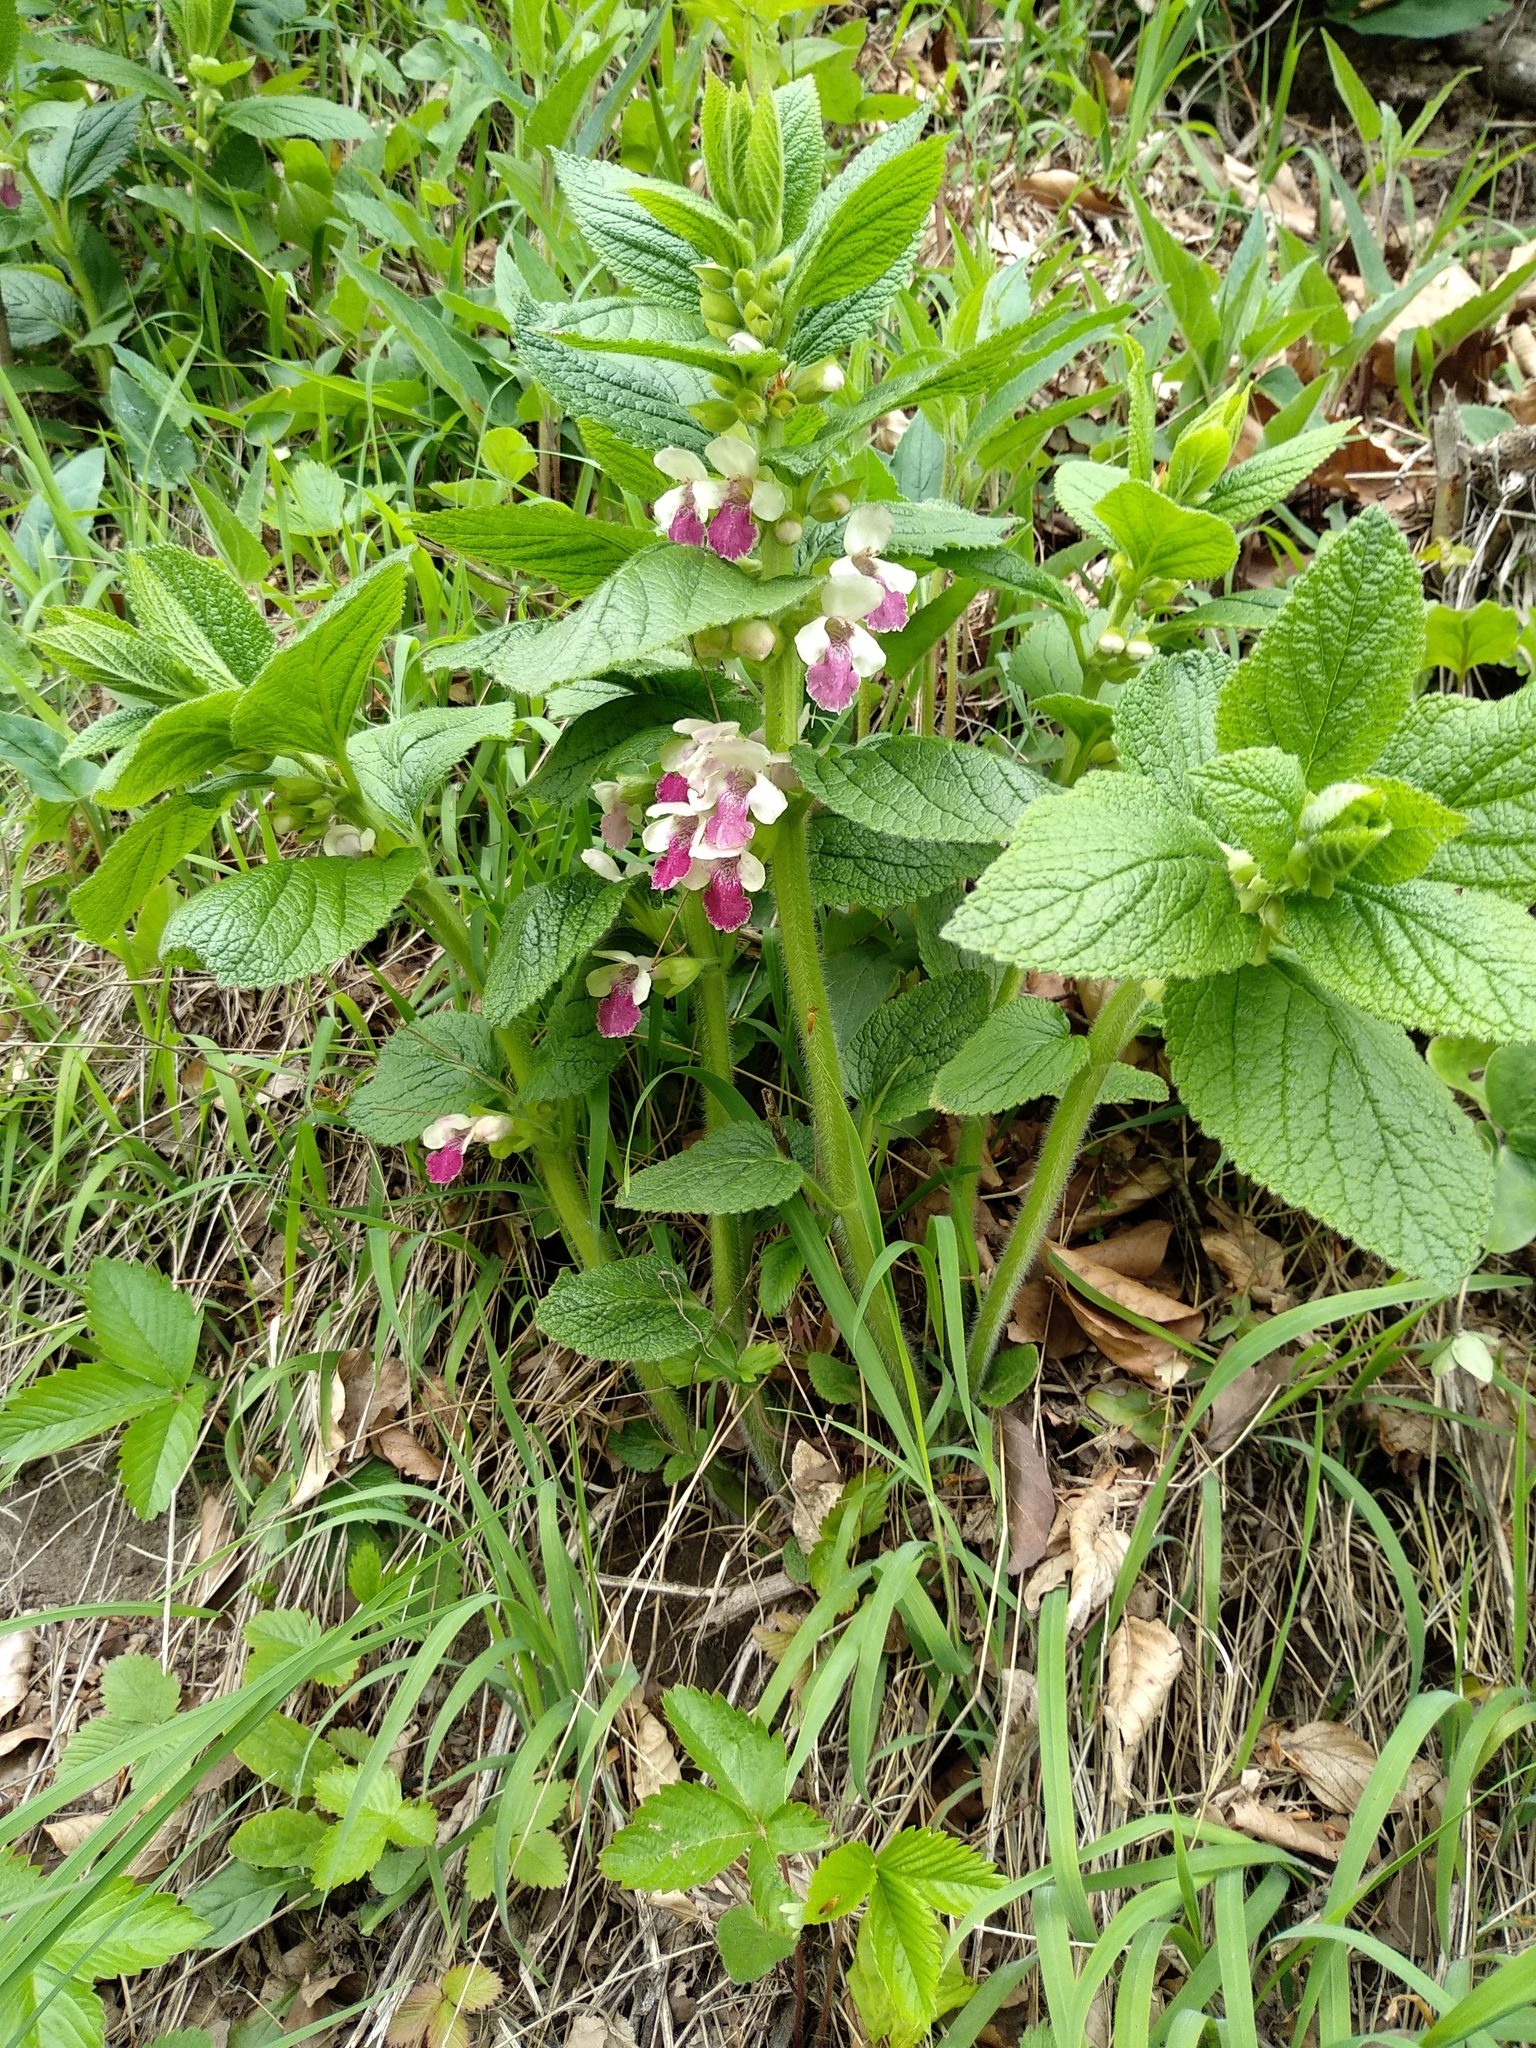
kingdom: Plantae
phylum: Tracheophyta
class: Magnoliopsida
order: Lamiales
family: Lamiaceae
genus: Melittis
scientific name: Melittis melissophyllum
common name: Bastard balm
